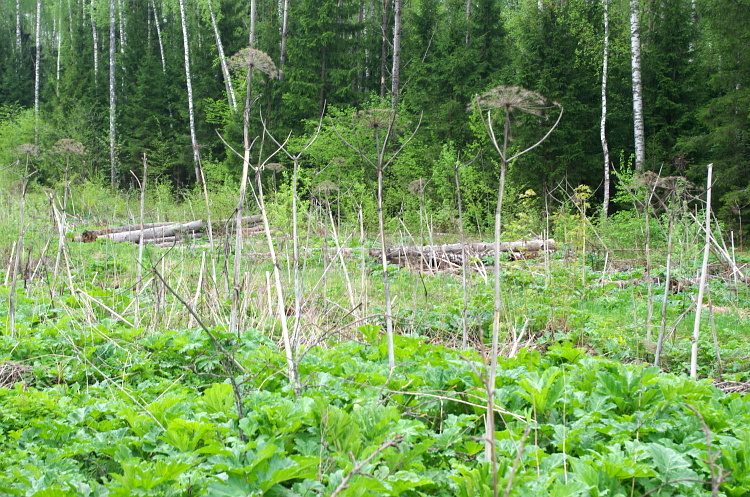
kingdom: Plantae
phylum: Tracheophyta
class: Magnoliopsida
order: Apiales
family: Apiaceae
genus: Heracleum
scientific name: Heracleum sosnowskyi
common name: Sosnowsky's hogweed
